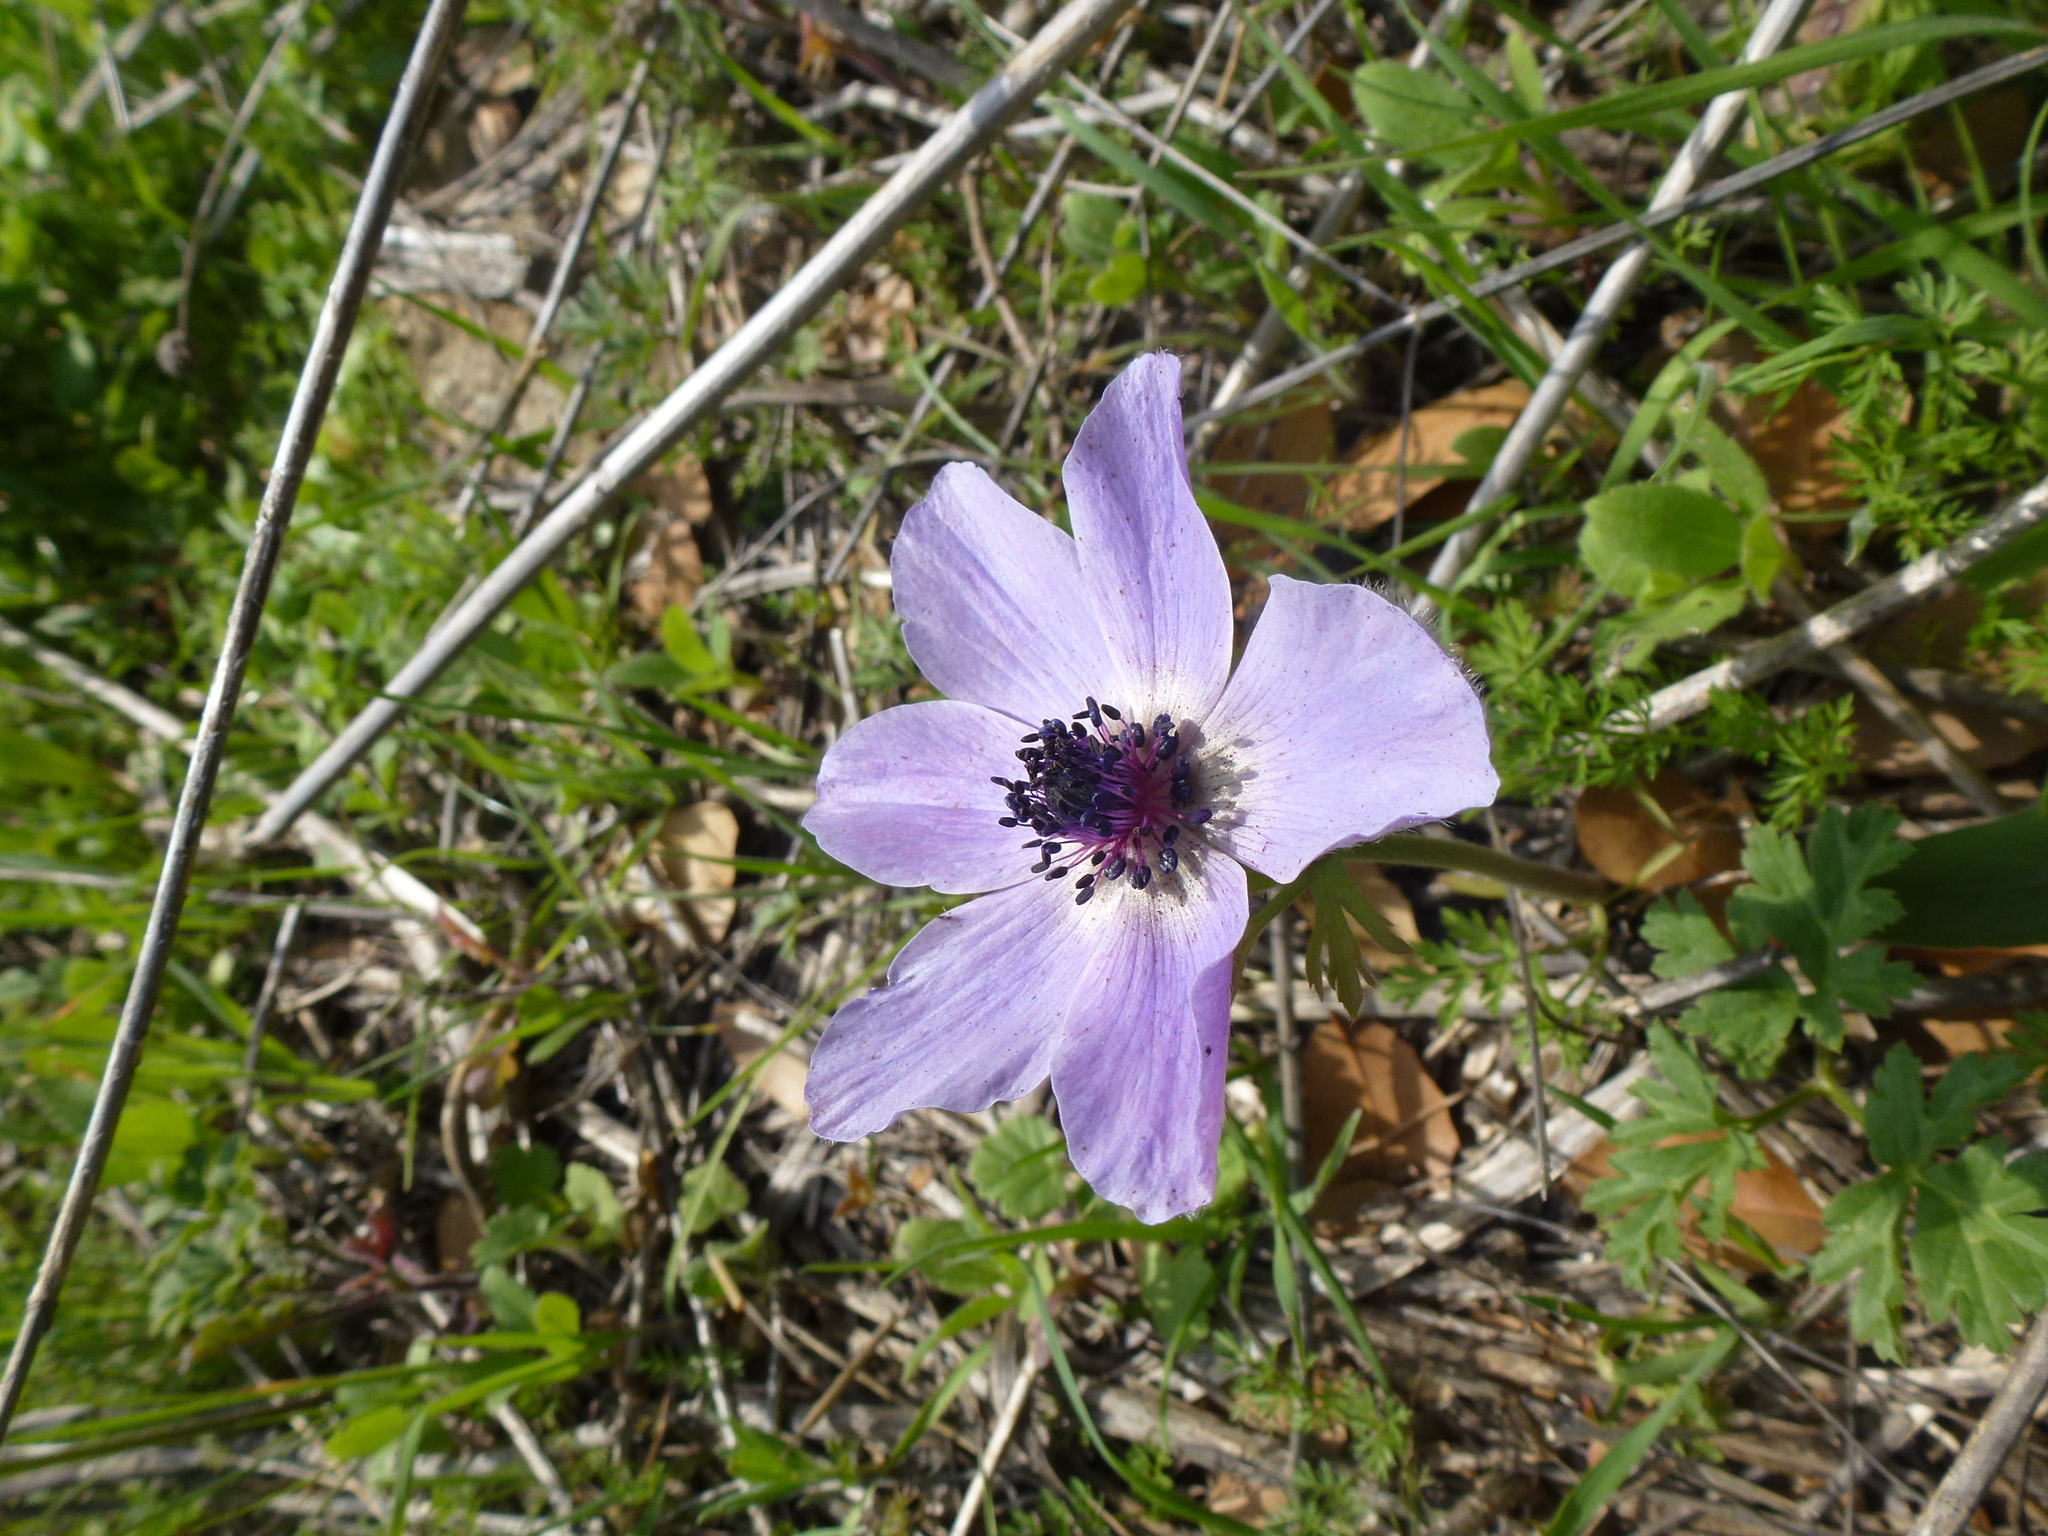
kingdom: Plantae
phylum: Tracheophyta
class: Magnoliopsida
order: Ranunculales
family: Ranunculaceae
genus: Anemone
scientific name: Anemone coronaria
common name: Poppy anemone
